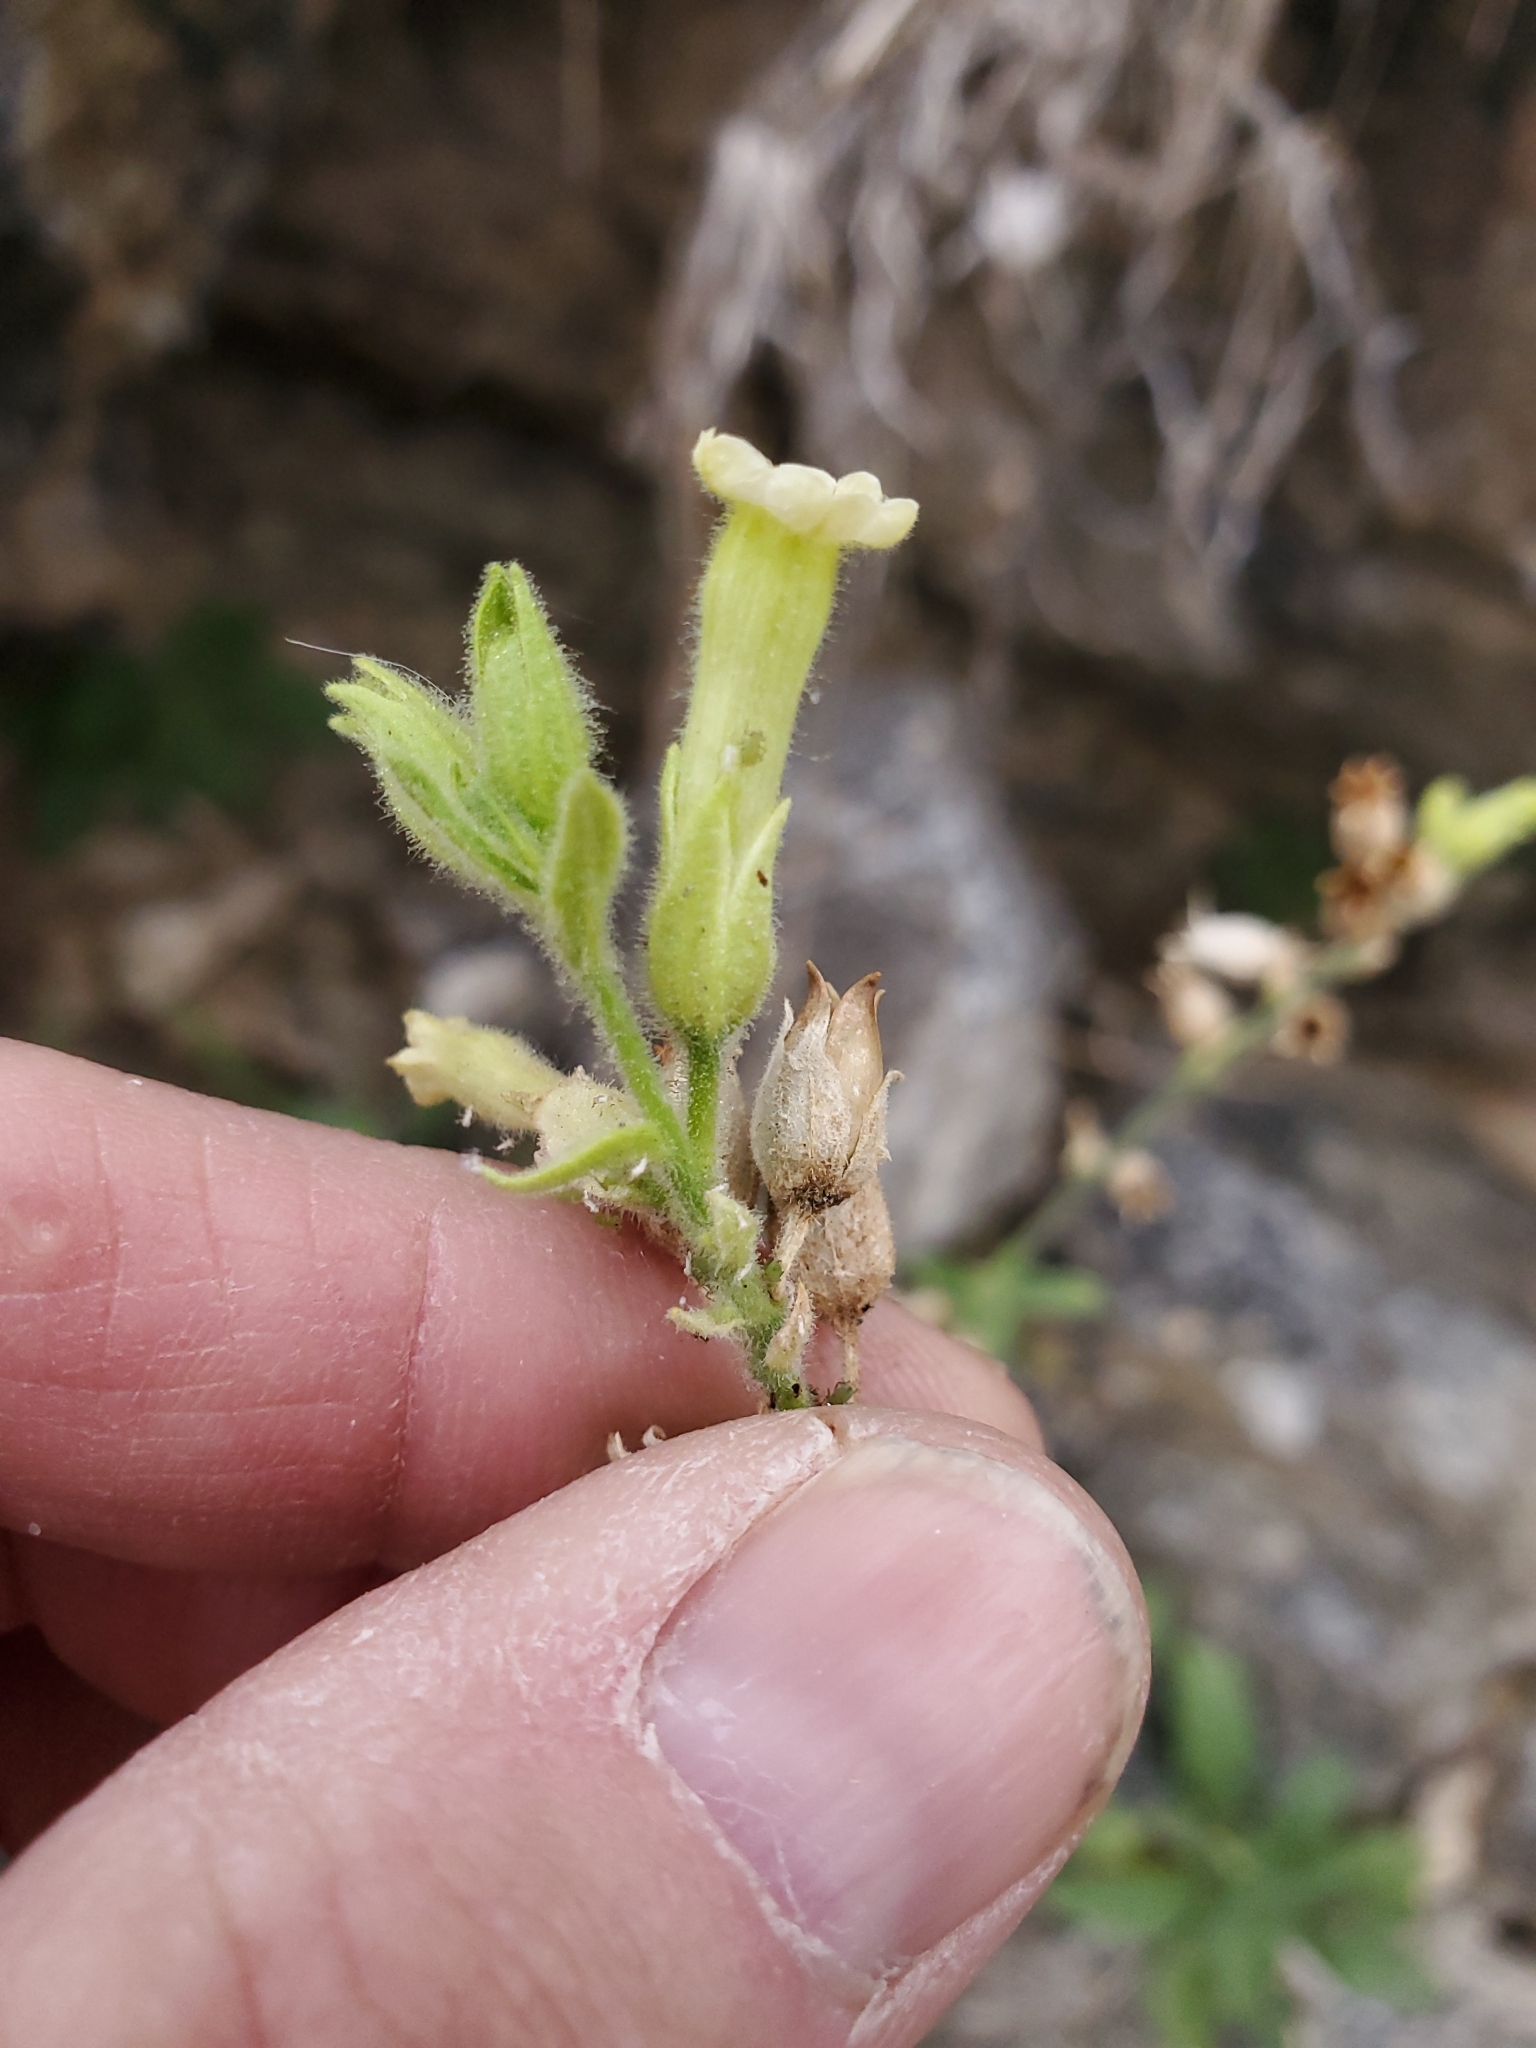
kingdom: Plantae
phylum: Tracheophyta
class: Magnoliopsida
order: Solanales
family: Solanaceae
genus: Nicotiana
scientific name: Nicotiana obtusifolia
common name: Desert tobacco
